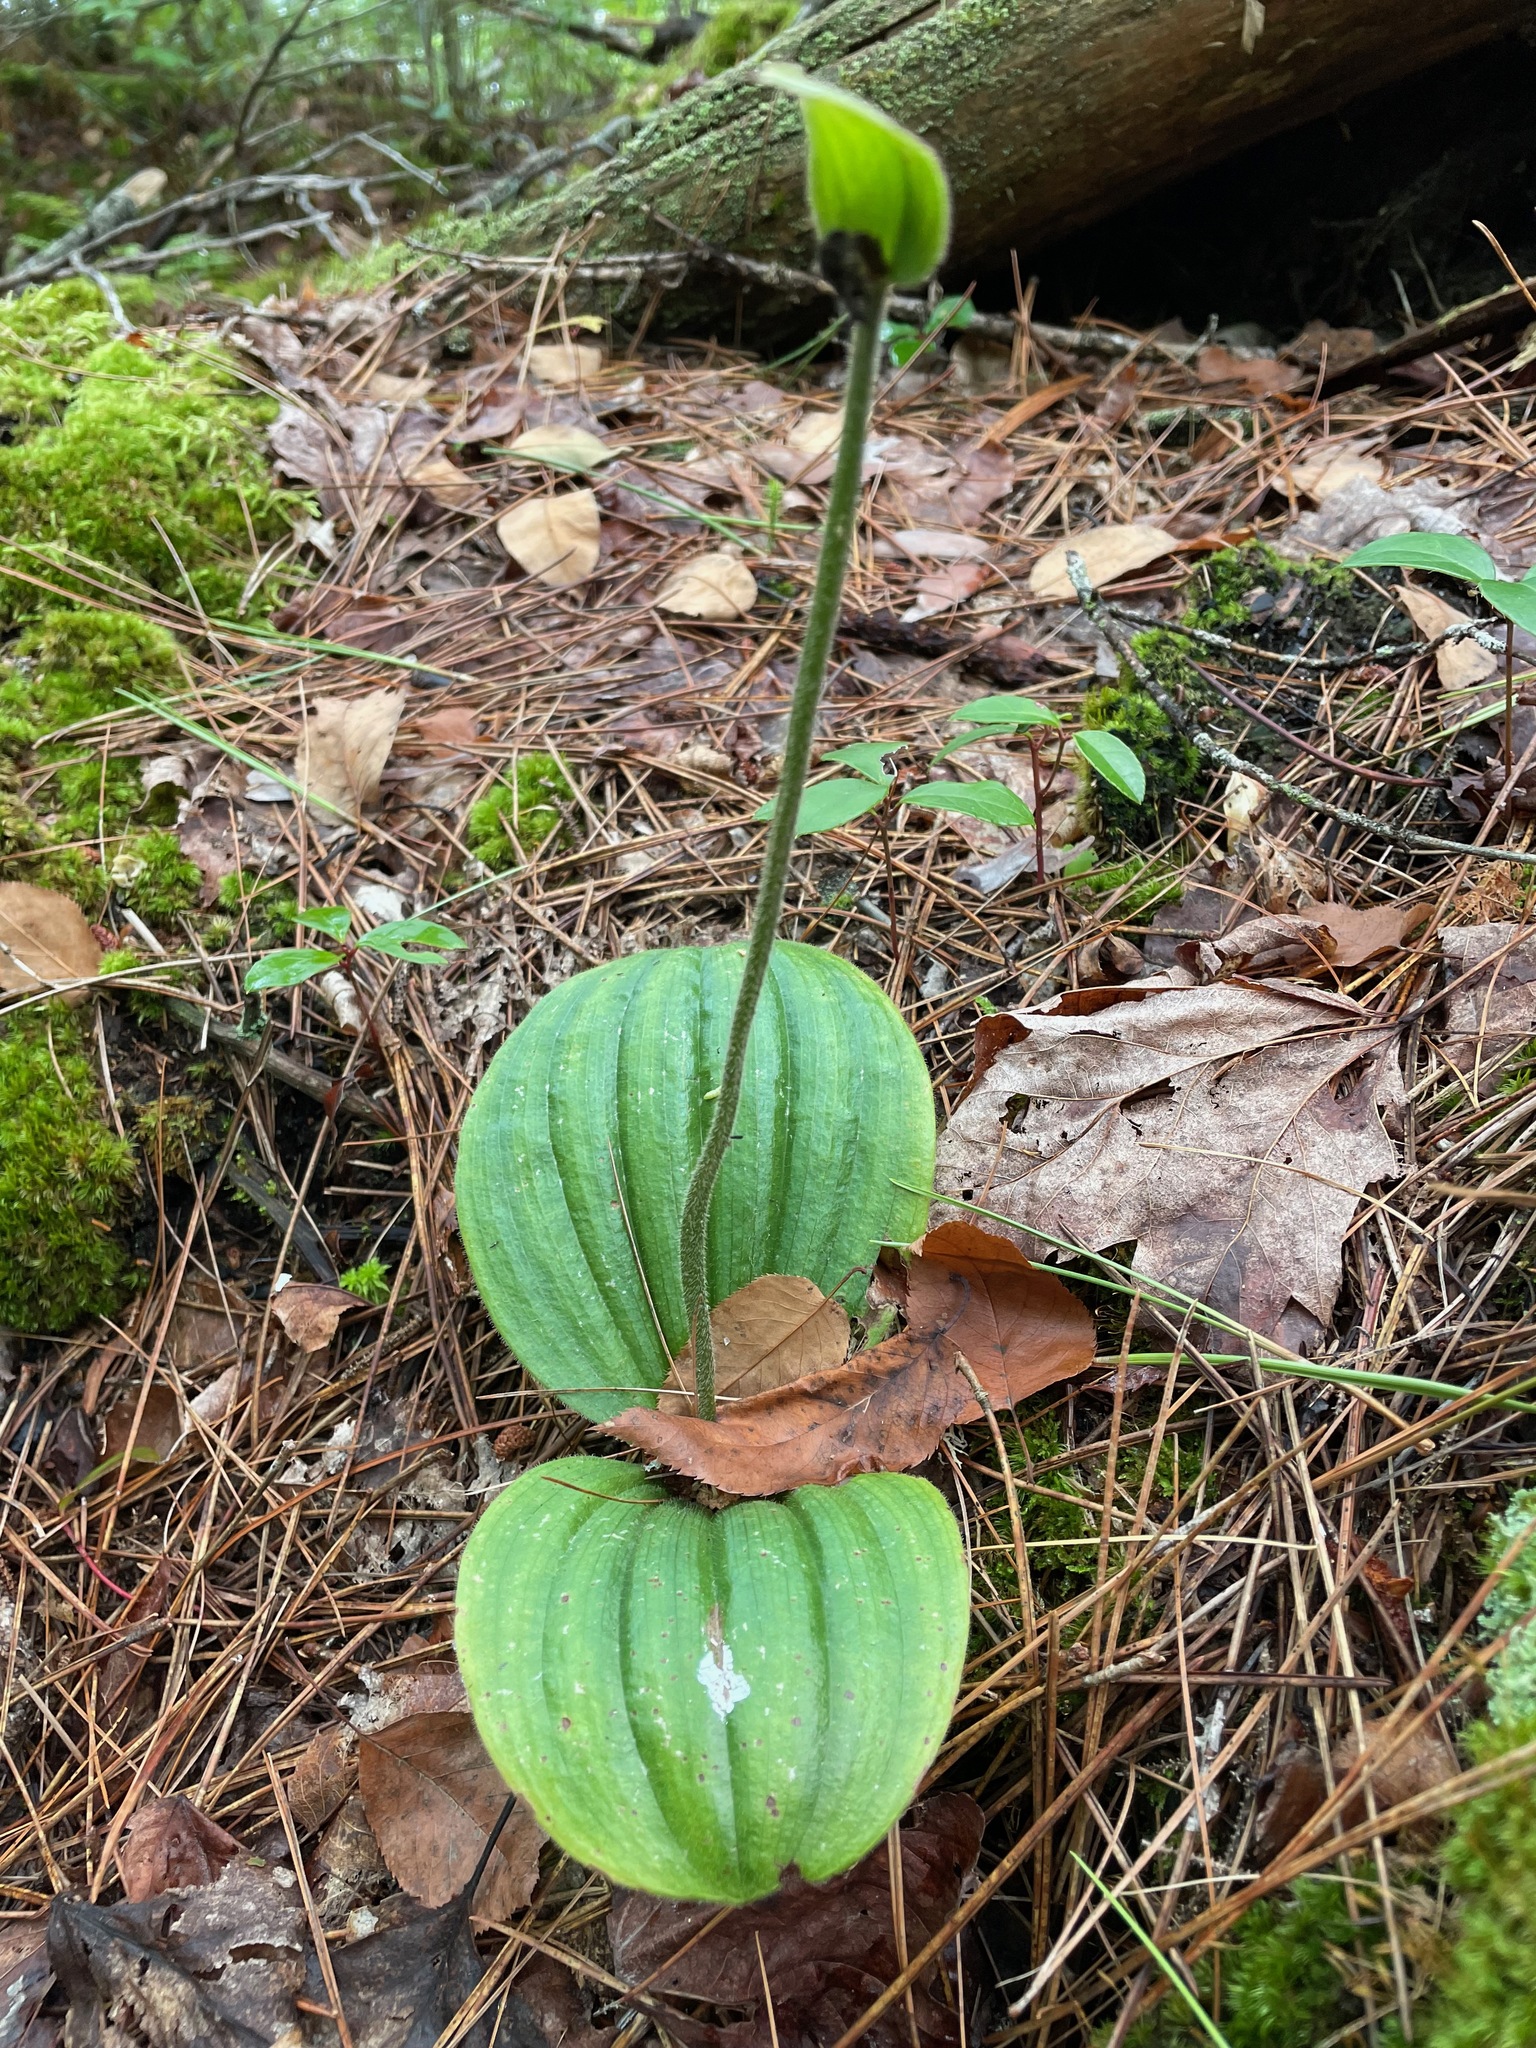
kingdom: Plantae
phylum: Tracheophyta
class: Liliopsida
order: Asparagales
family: Orchidaceae
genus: Cypripedium
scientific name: Cypripedium acaule
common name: Pink lady's-slipper
